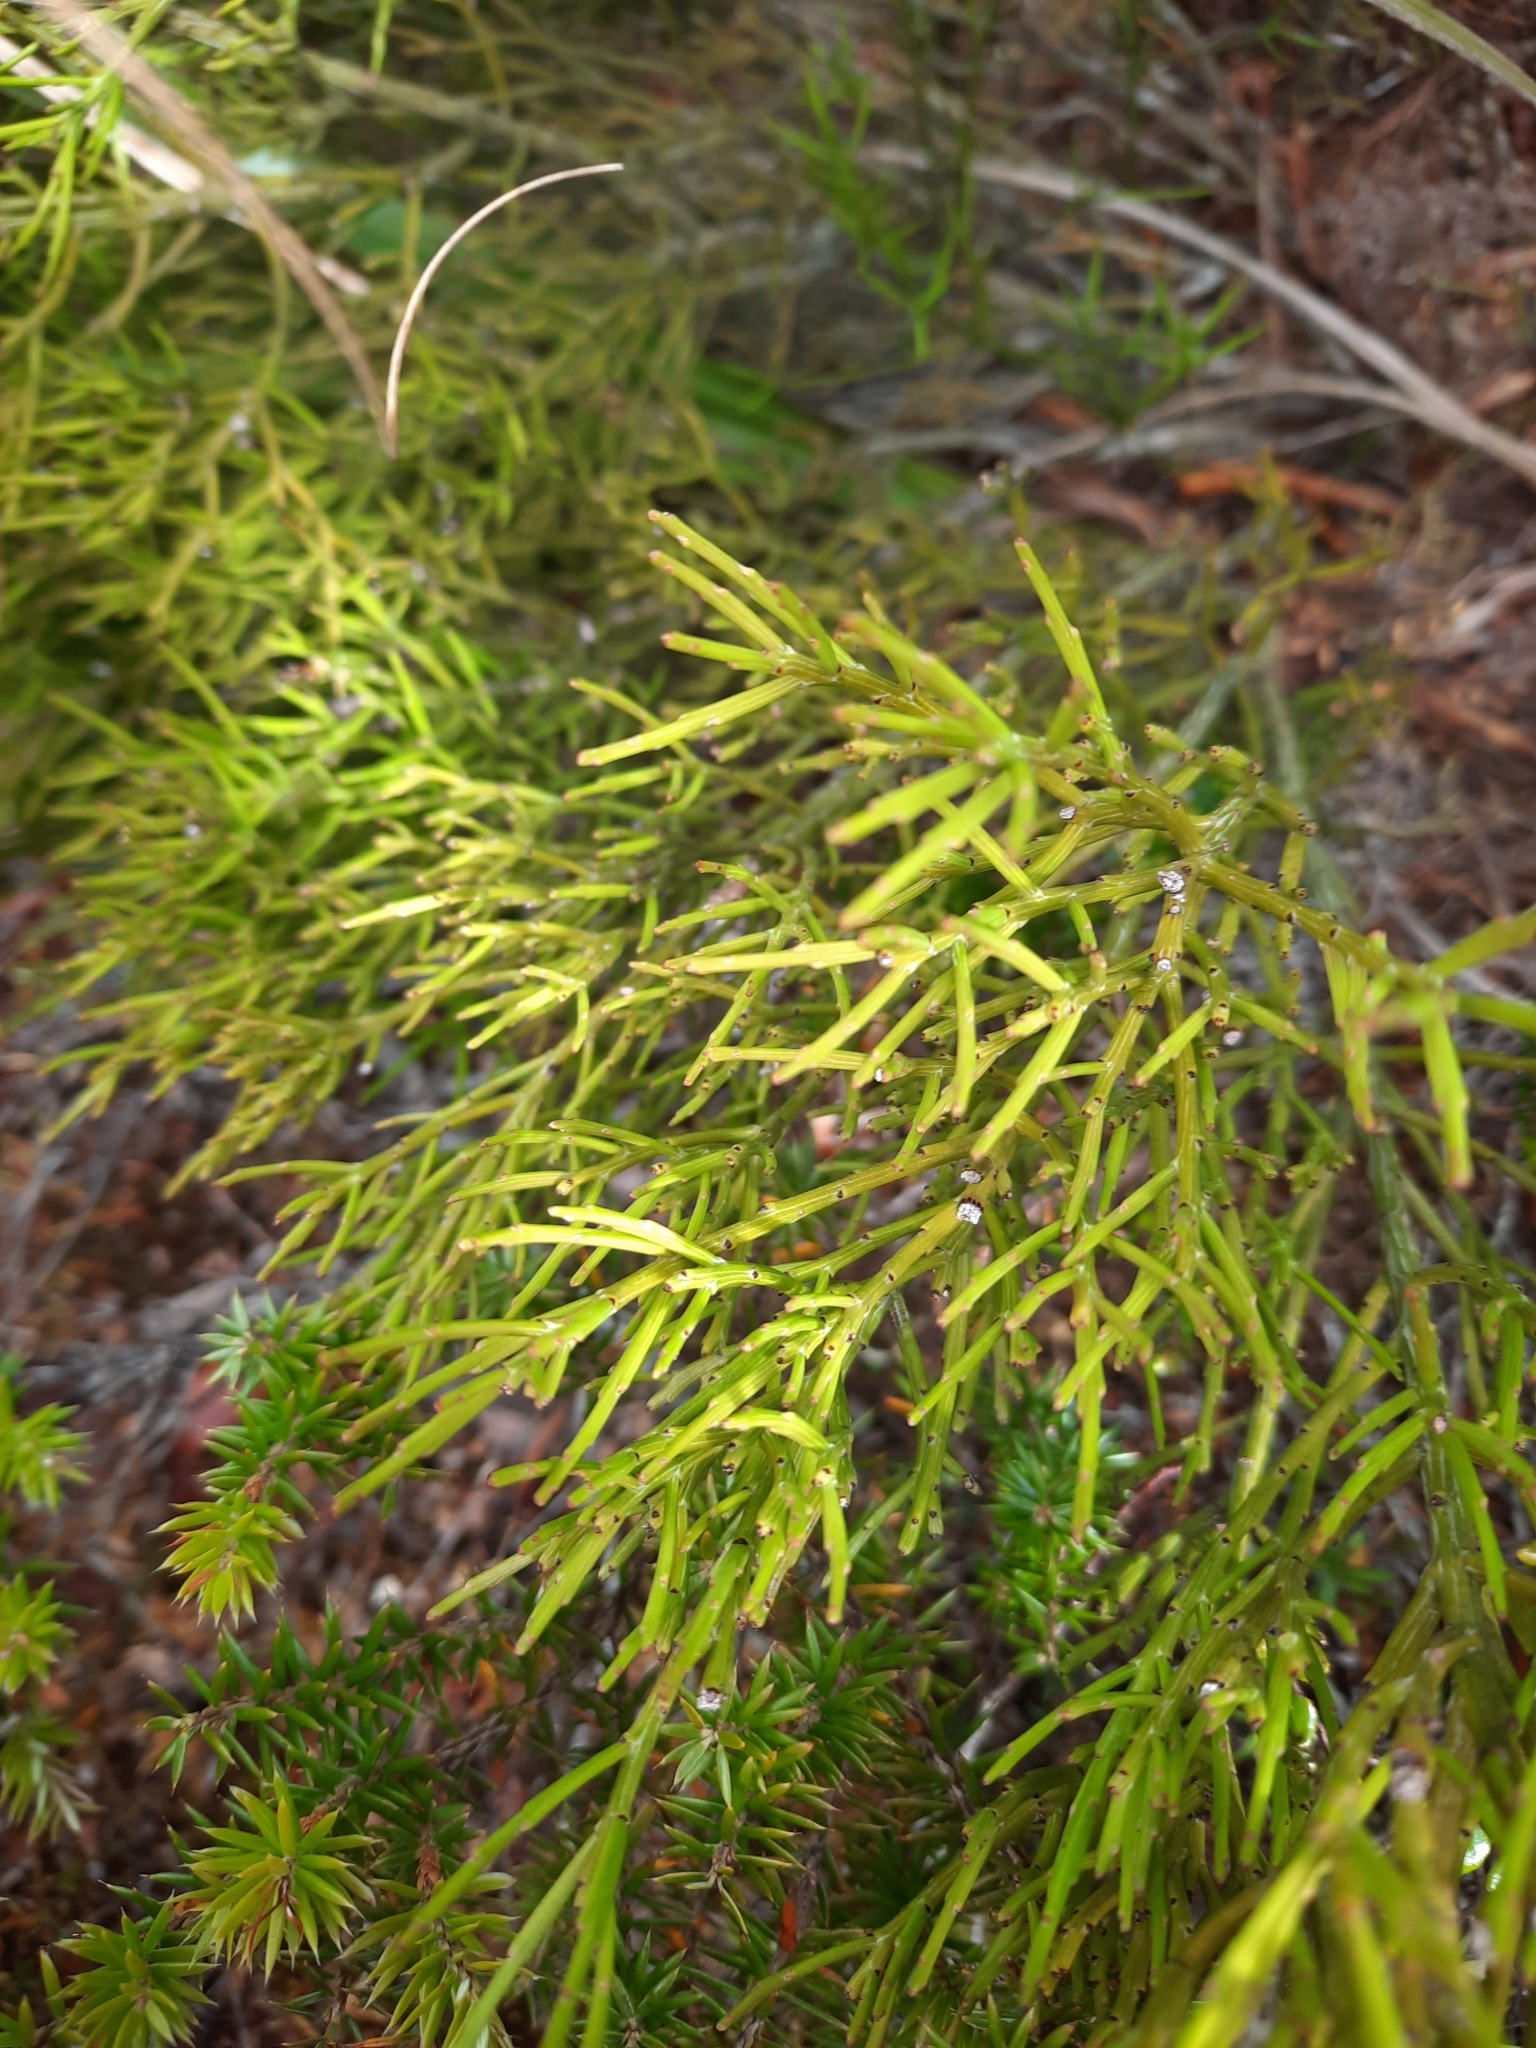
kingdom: Plantae
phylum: Tracheophyta
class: Magnoliopsida
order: Santalales
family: Santalaceae
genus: Exocarpos
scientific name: Exocarpos bidwillii
